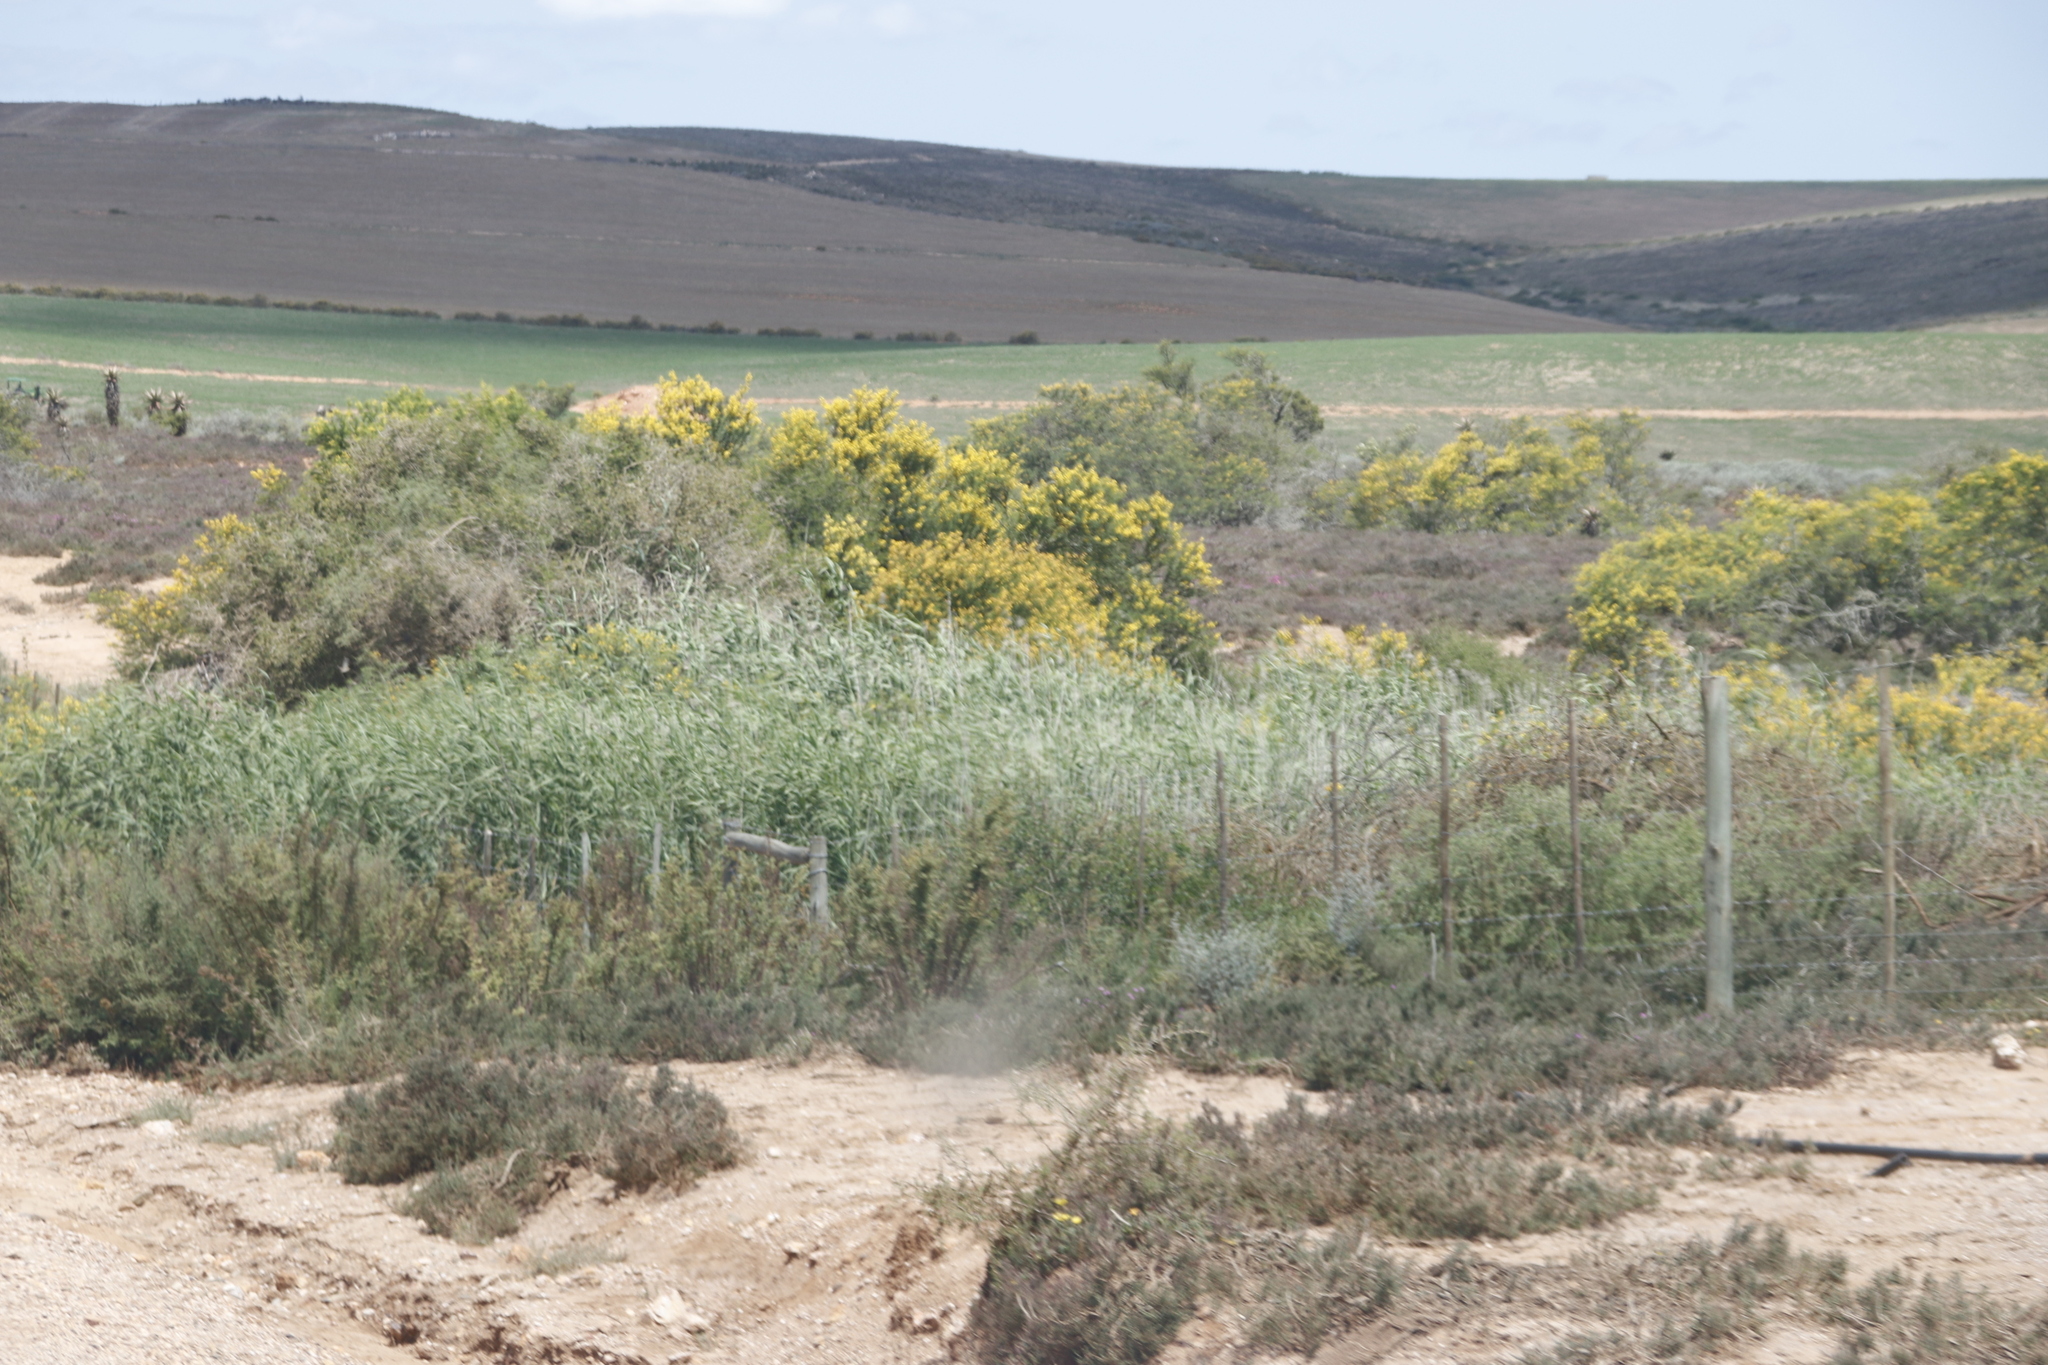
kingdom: Plantae
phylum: Tracheophyta
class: Liliopsida
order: Poales
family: Poaceae
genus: Phragmites
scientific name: Phragmites australis
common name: Common reed
